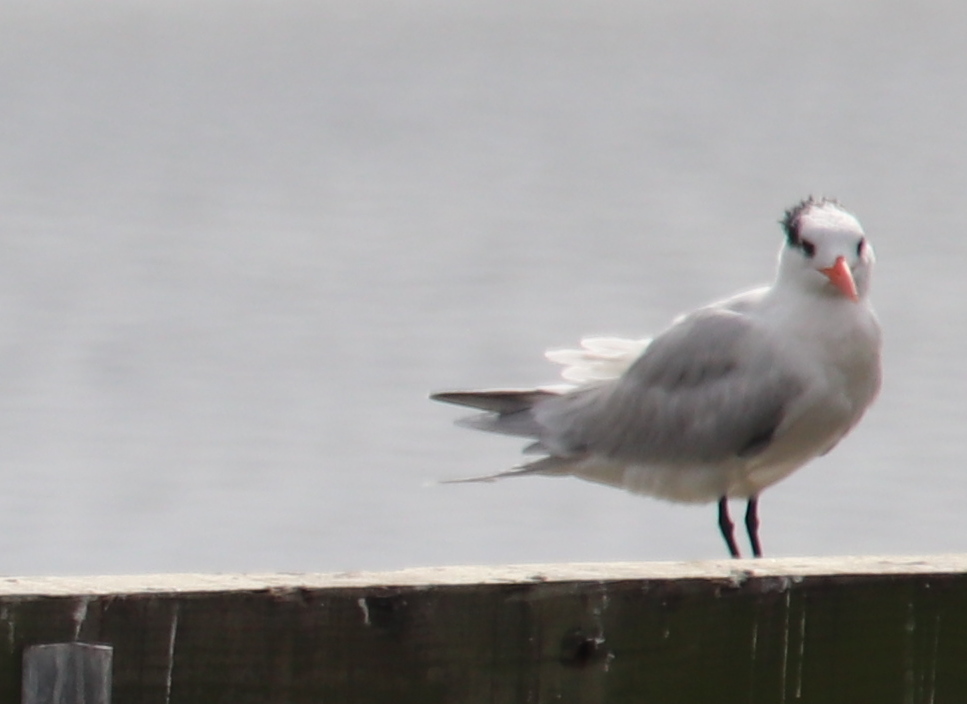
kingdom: Animalia
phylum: Chordata
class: Aves
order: Charadriiformes
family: Laridae
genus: Thalasseus
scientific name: Thalasseus maximus
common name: Royal tern
